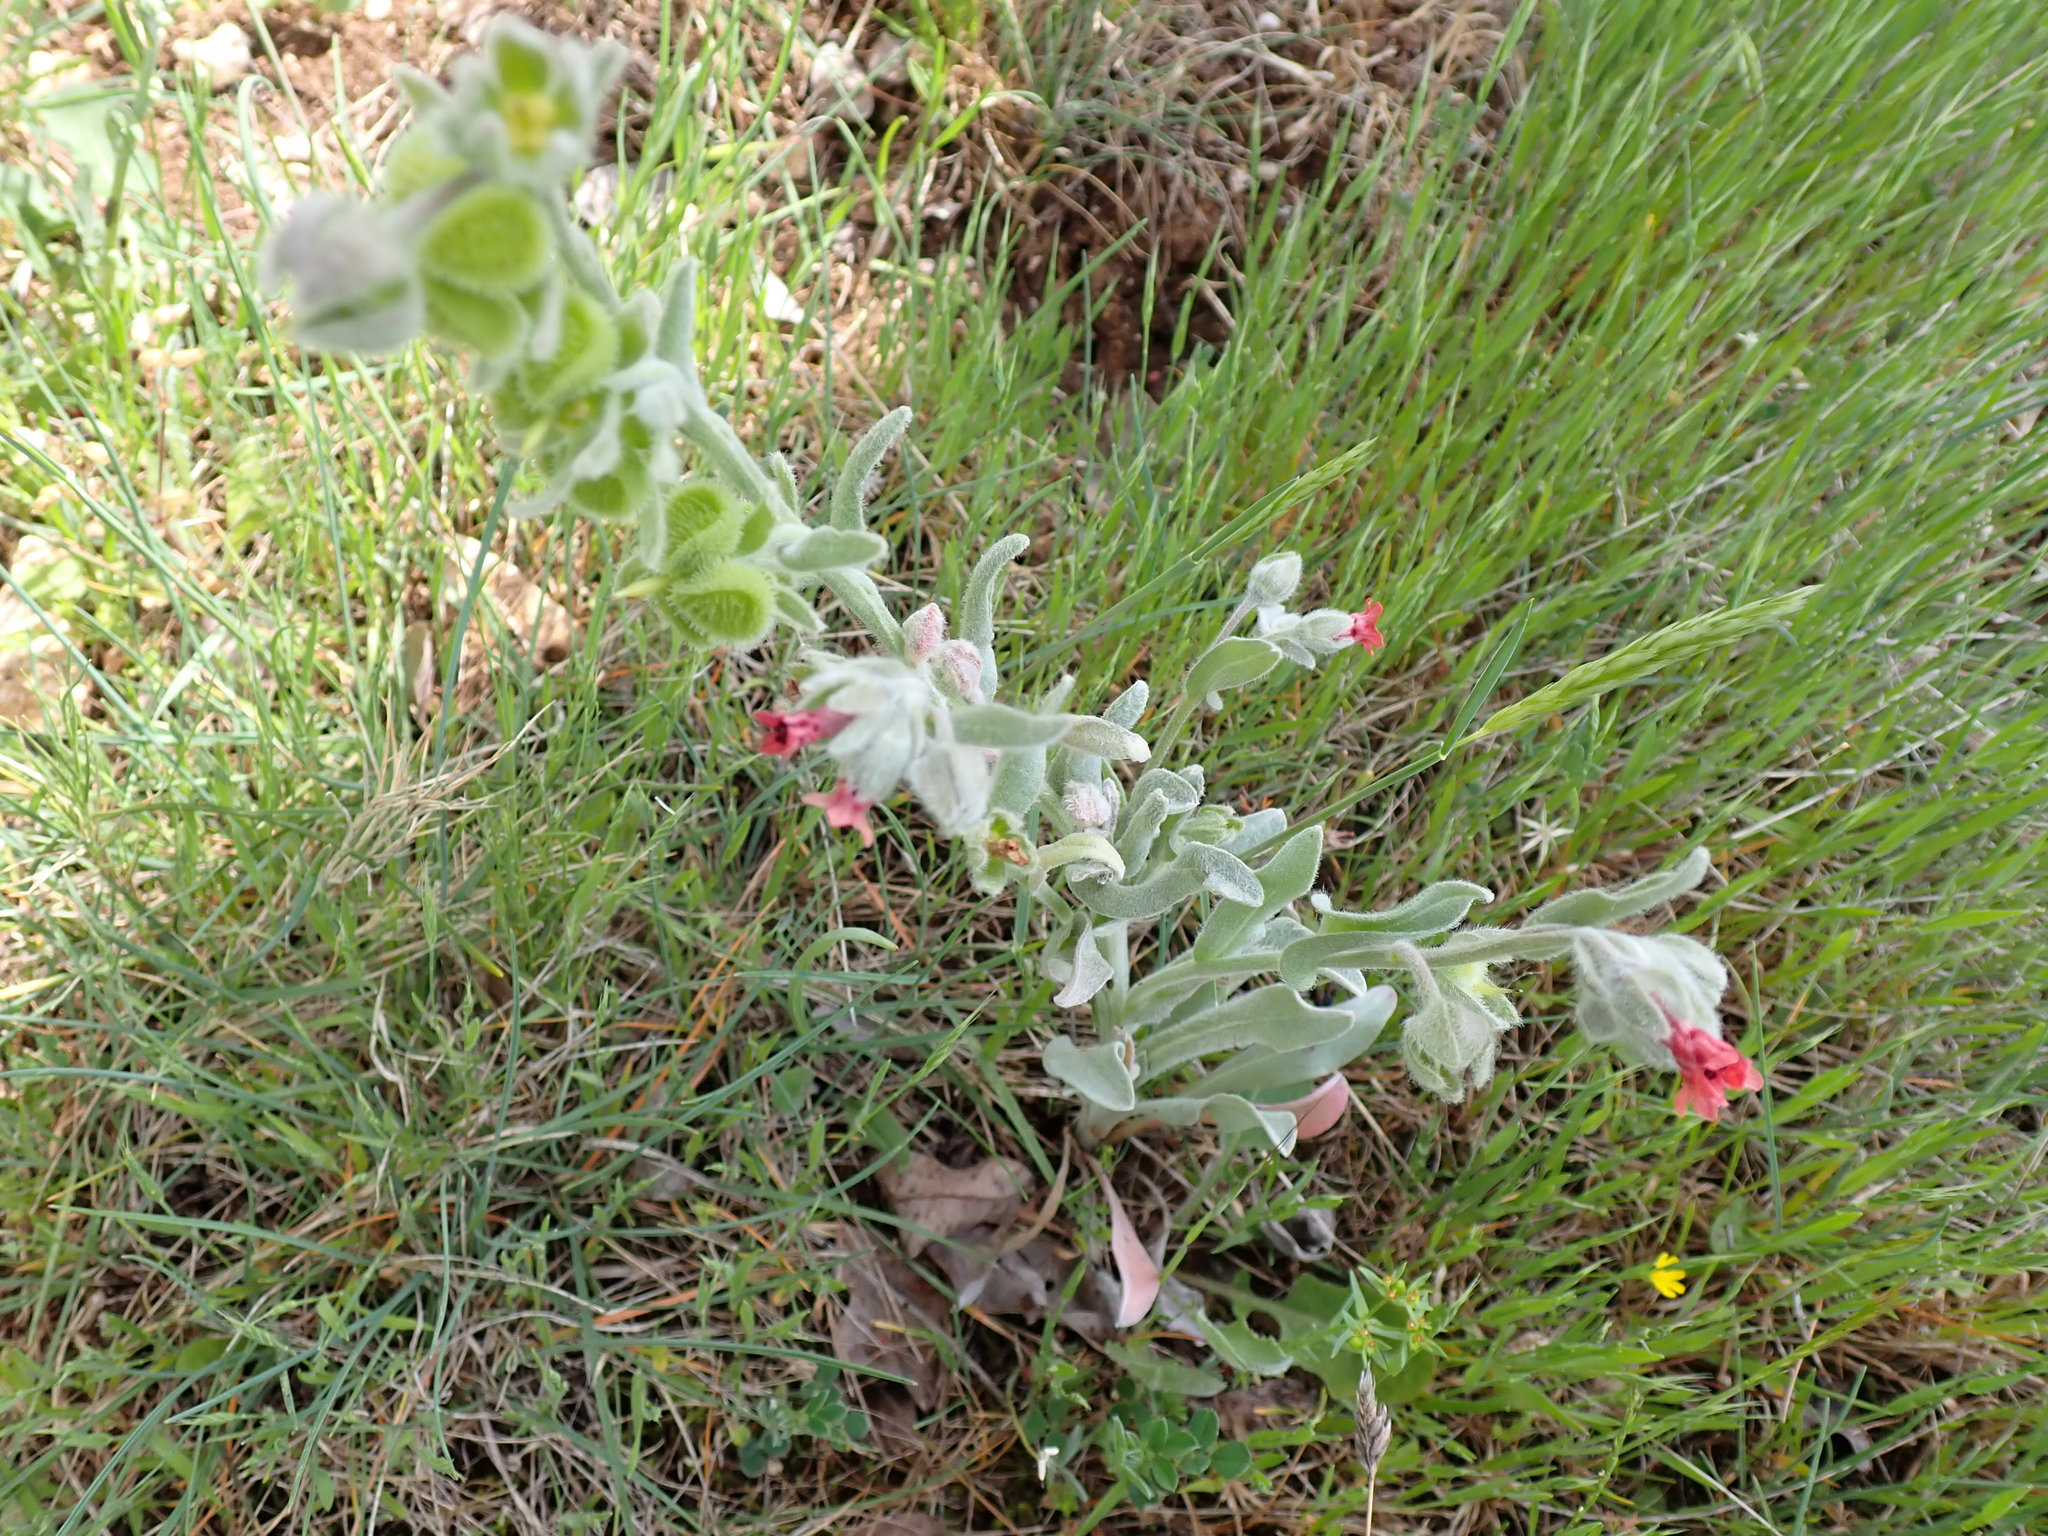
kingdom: Plantae
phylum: Tracheophyta
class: Magnoliopsida
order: Boraginales
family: Boraginaceae
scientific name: Boraginaceae
